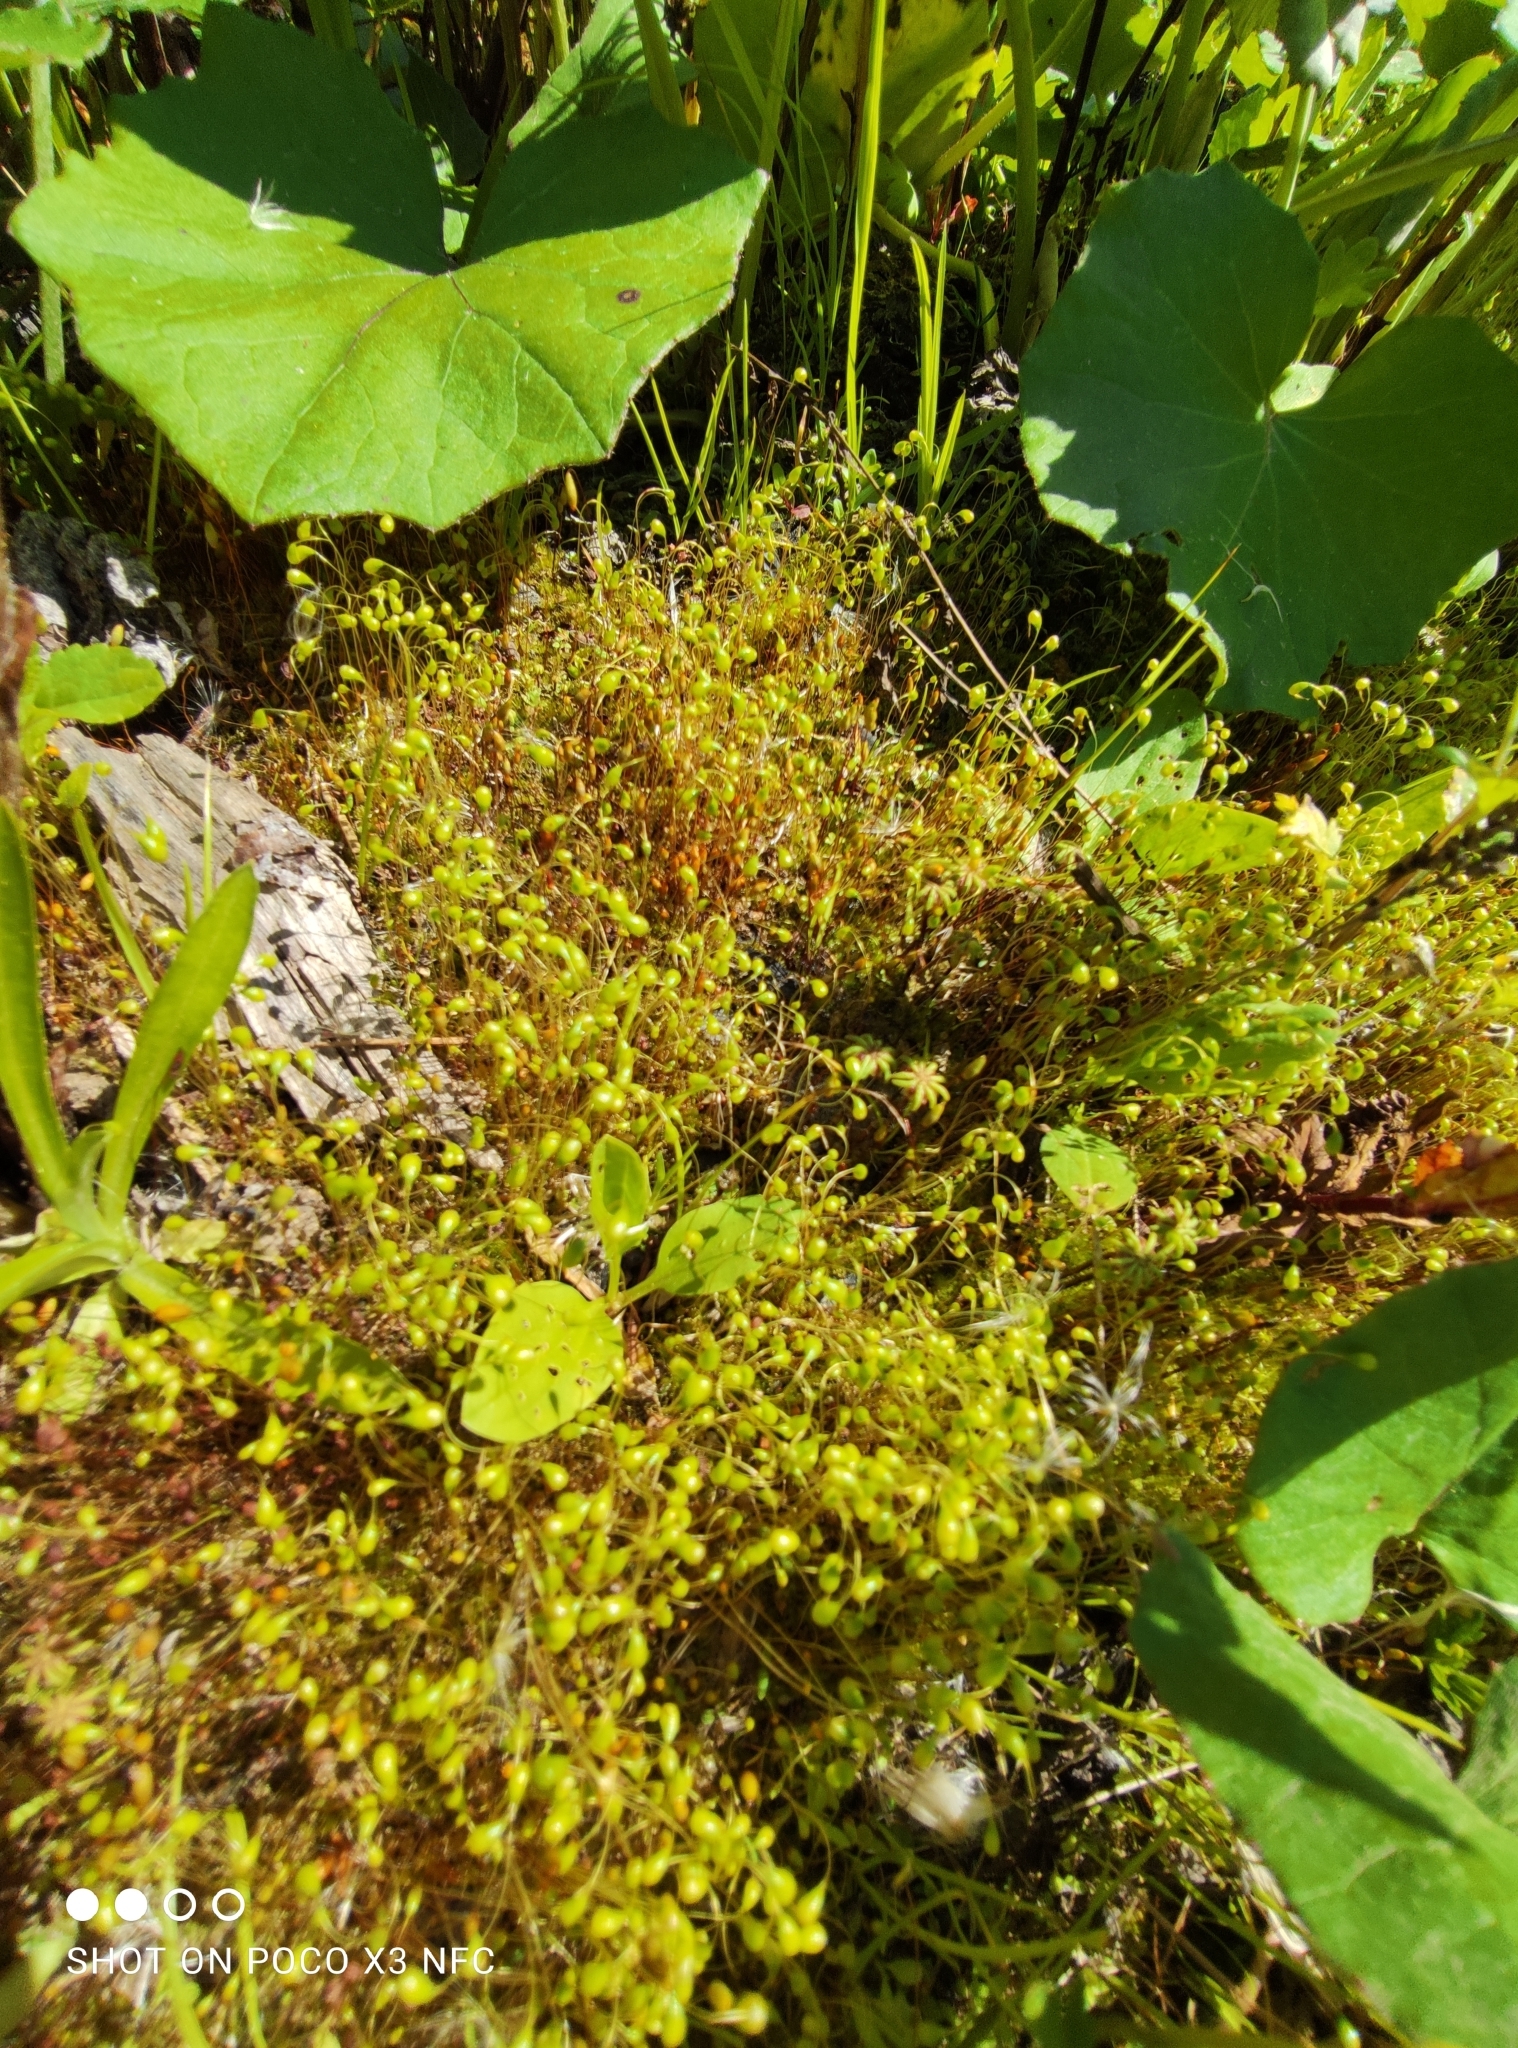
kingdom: Plantae
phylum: Bryophyta
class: Bryopsida
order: Funariales
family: Funariaceae
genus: Funaria
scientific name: Funaria hygrometrica
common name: Common cord moss
